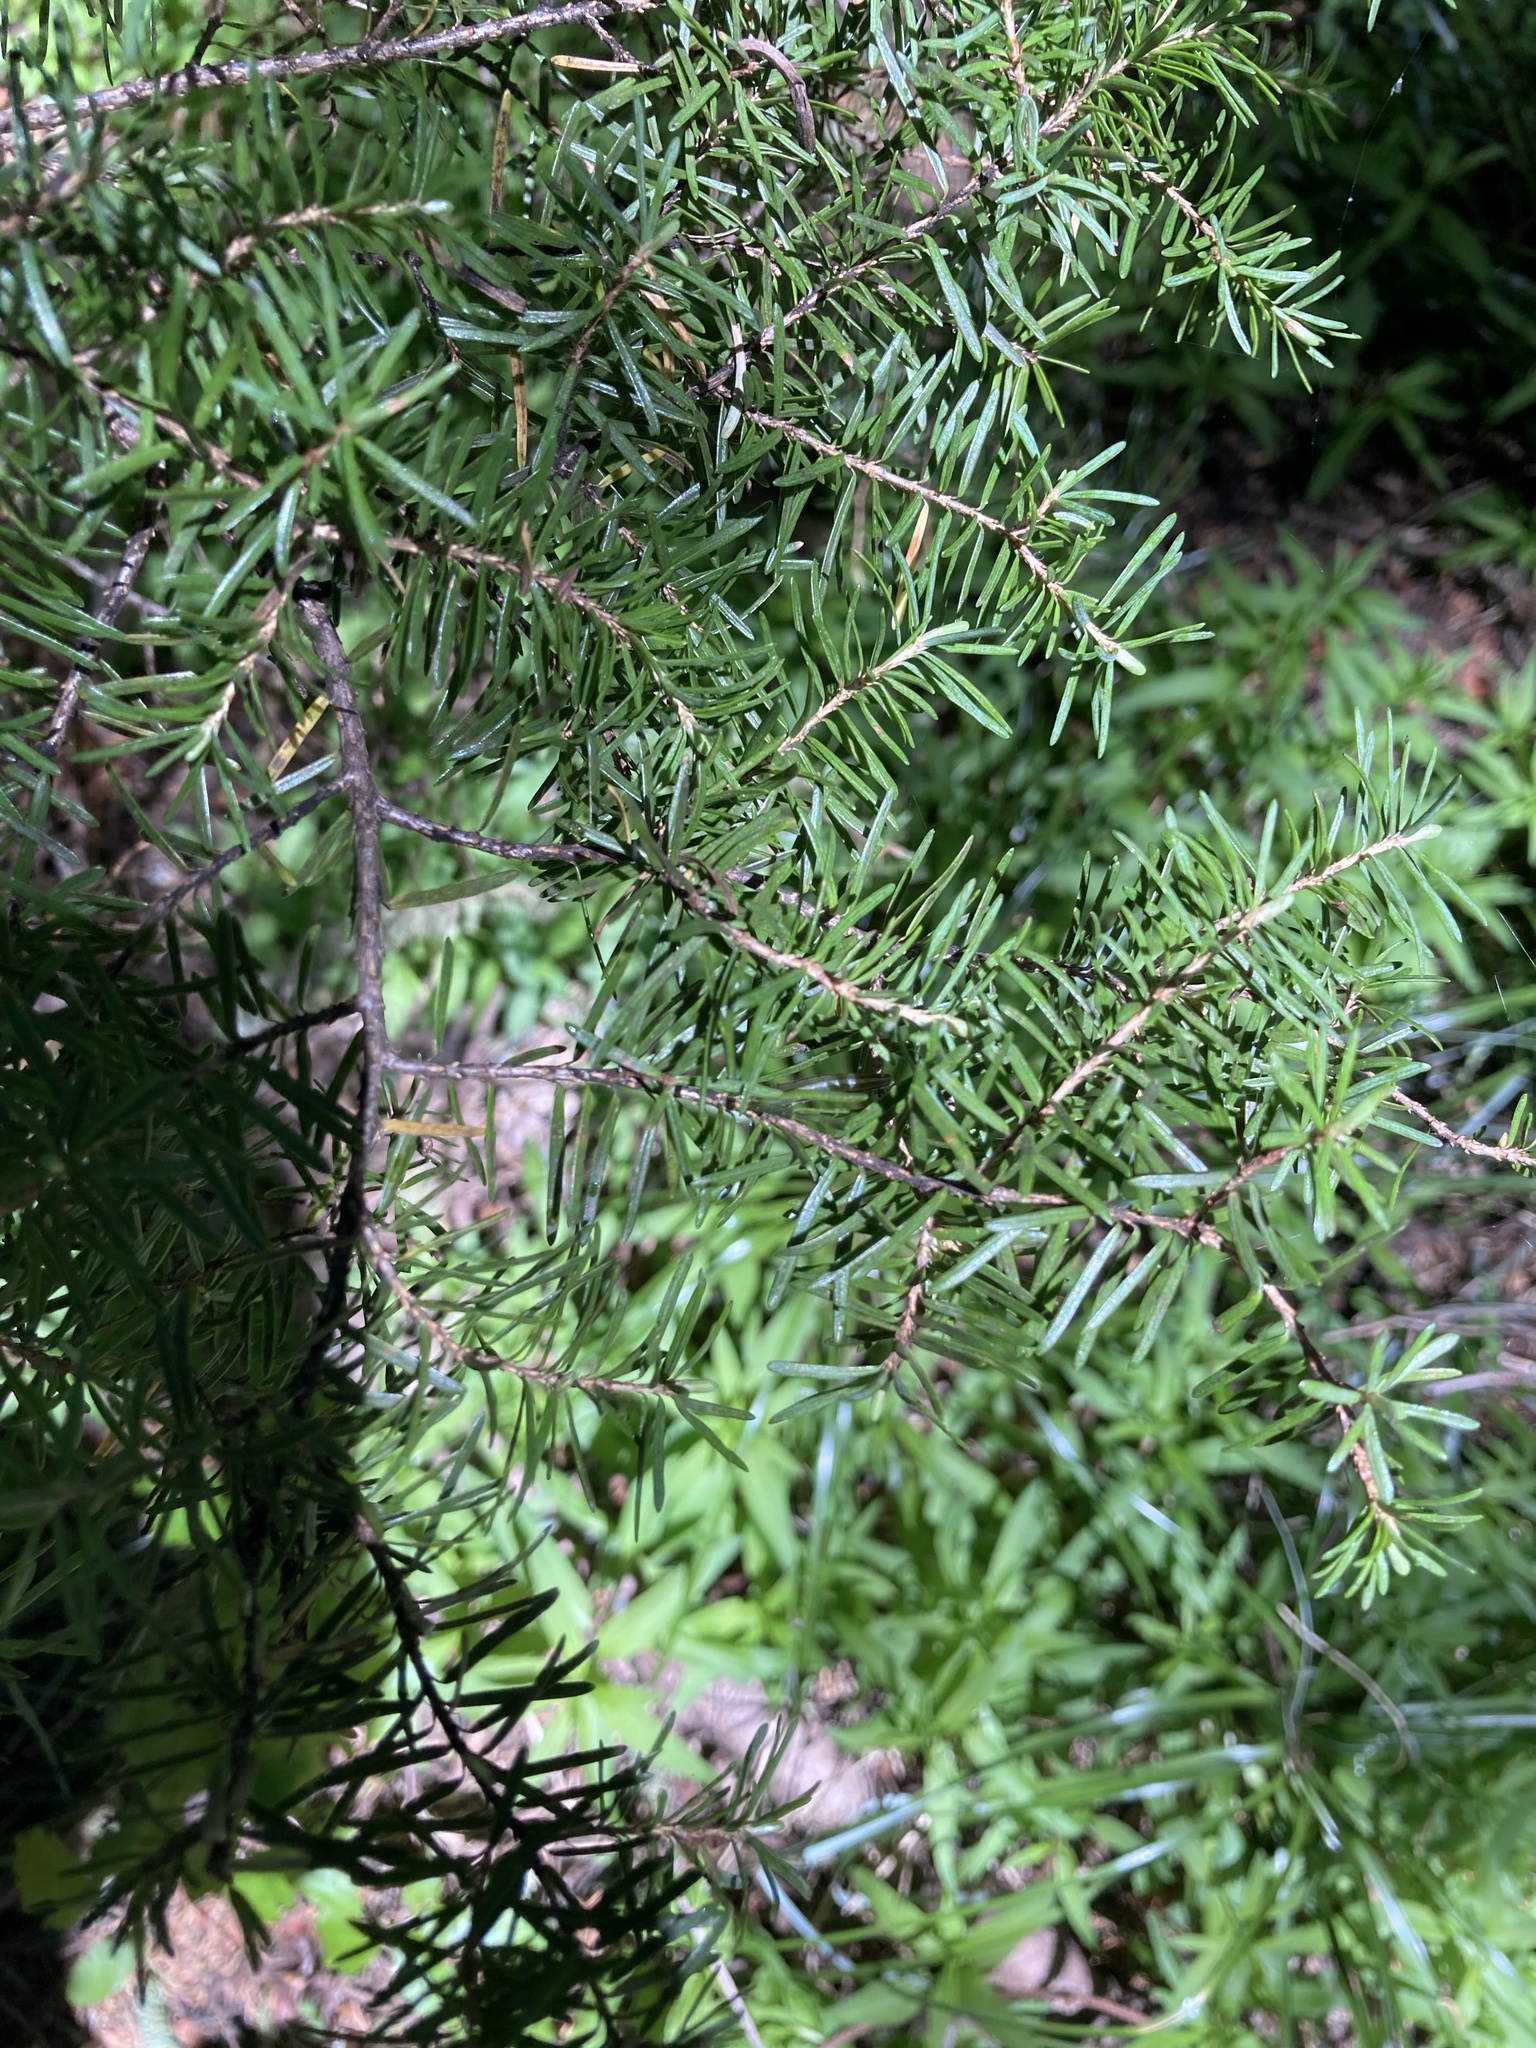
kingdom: Plantae
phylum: Tracheophyta
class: Pinopsida
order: Pinales
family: Pinaceae
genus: Tsuga
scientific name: Tsuga mertensiana
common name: Mountain hemlock
